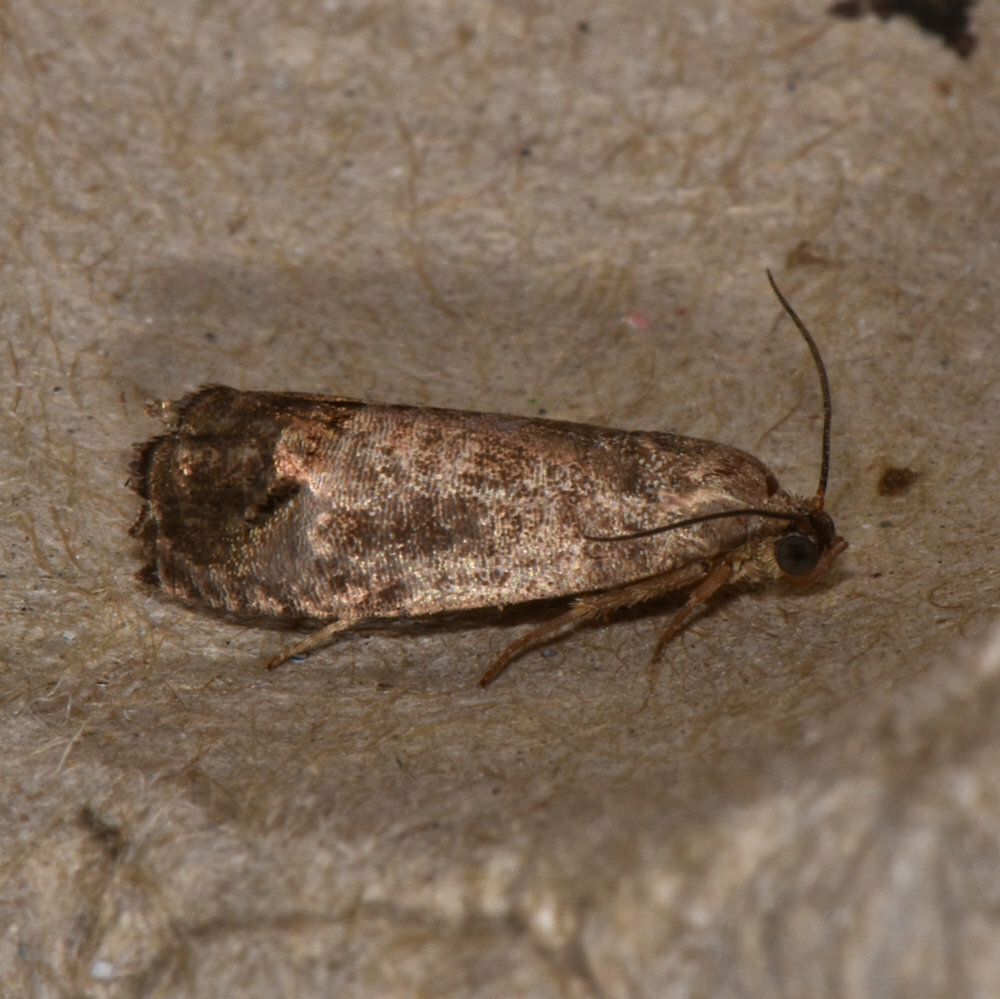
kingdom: Animalia
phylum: Arthropoda
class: Insecta
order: Lepidoptera
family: Tortricidae
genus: Cydia
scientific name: Cydia pomonella
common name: Codling moth
